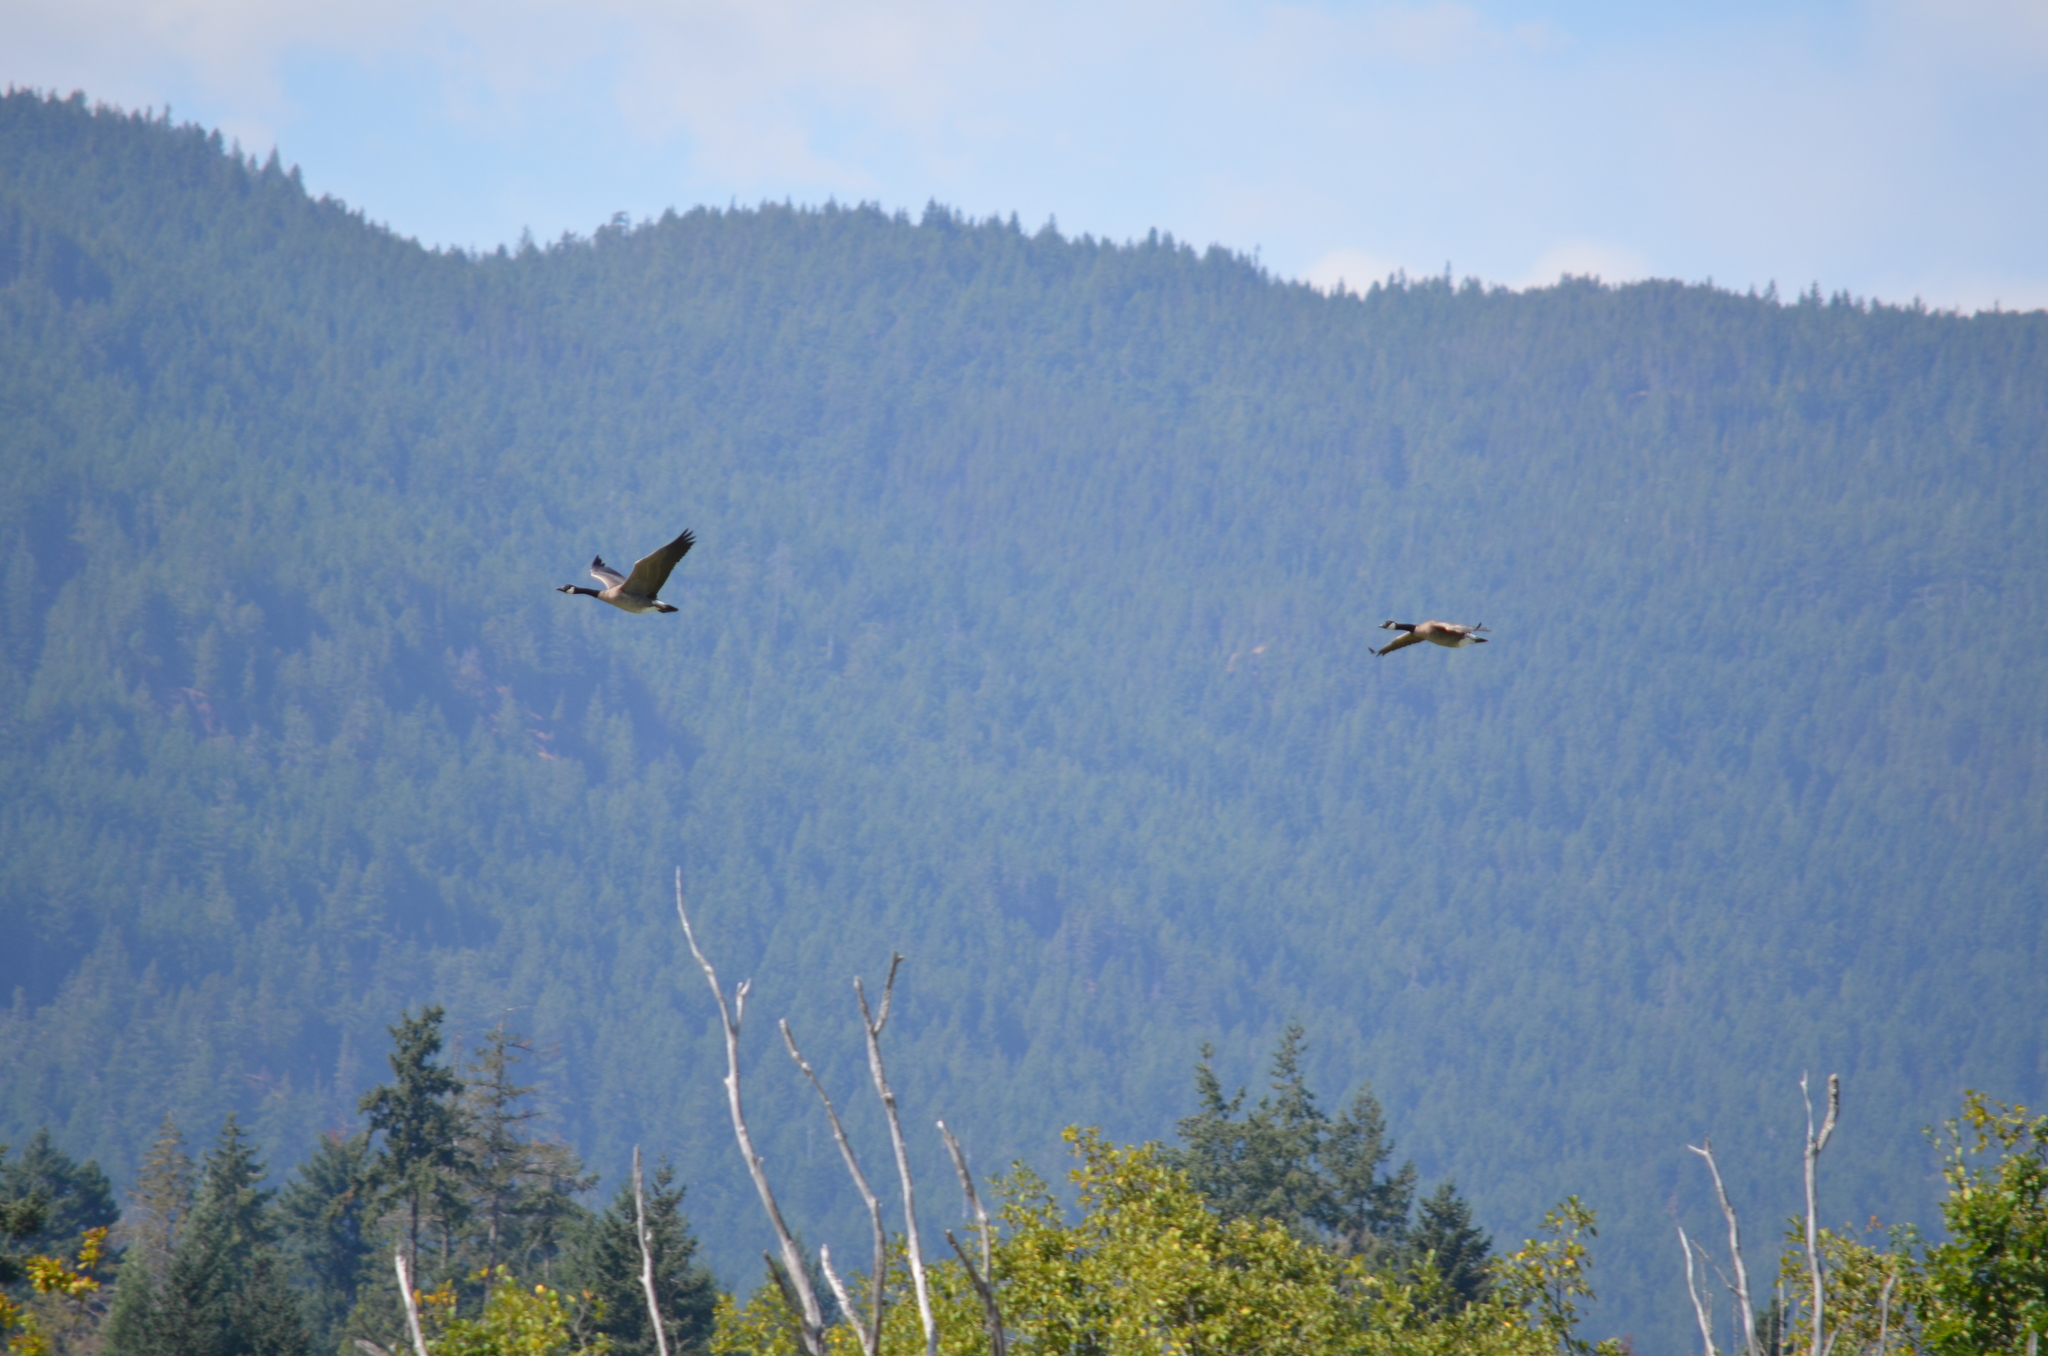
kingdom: Animalia
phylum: Chordata
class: Aves
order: Anseriformes
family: Anatidae
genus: Branta
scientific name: Branta canadensis
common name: Canada goose
